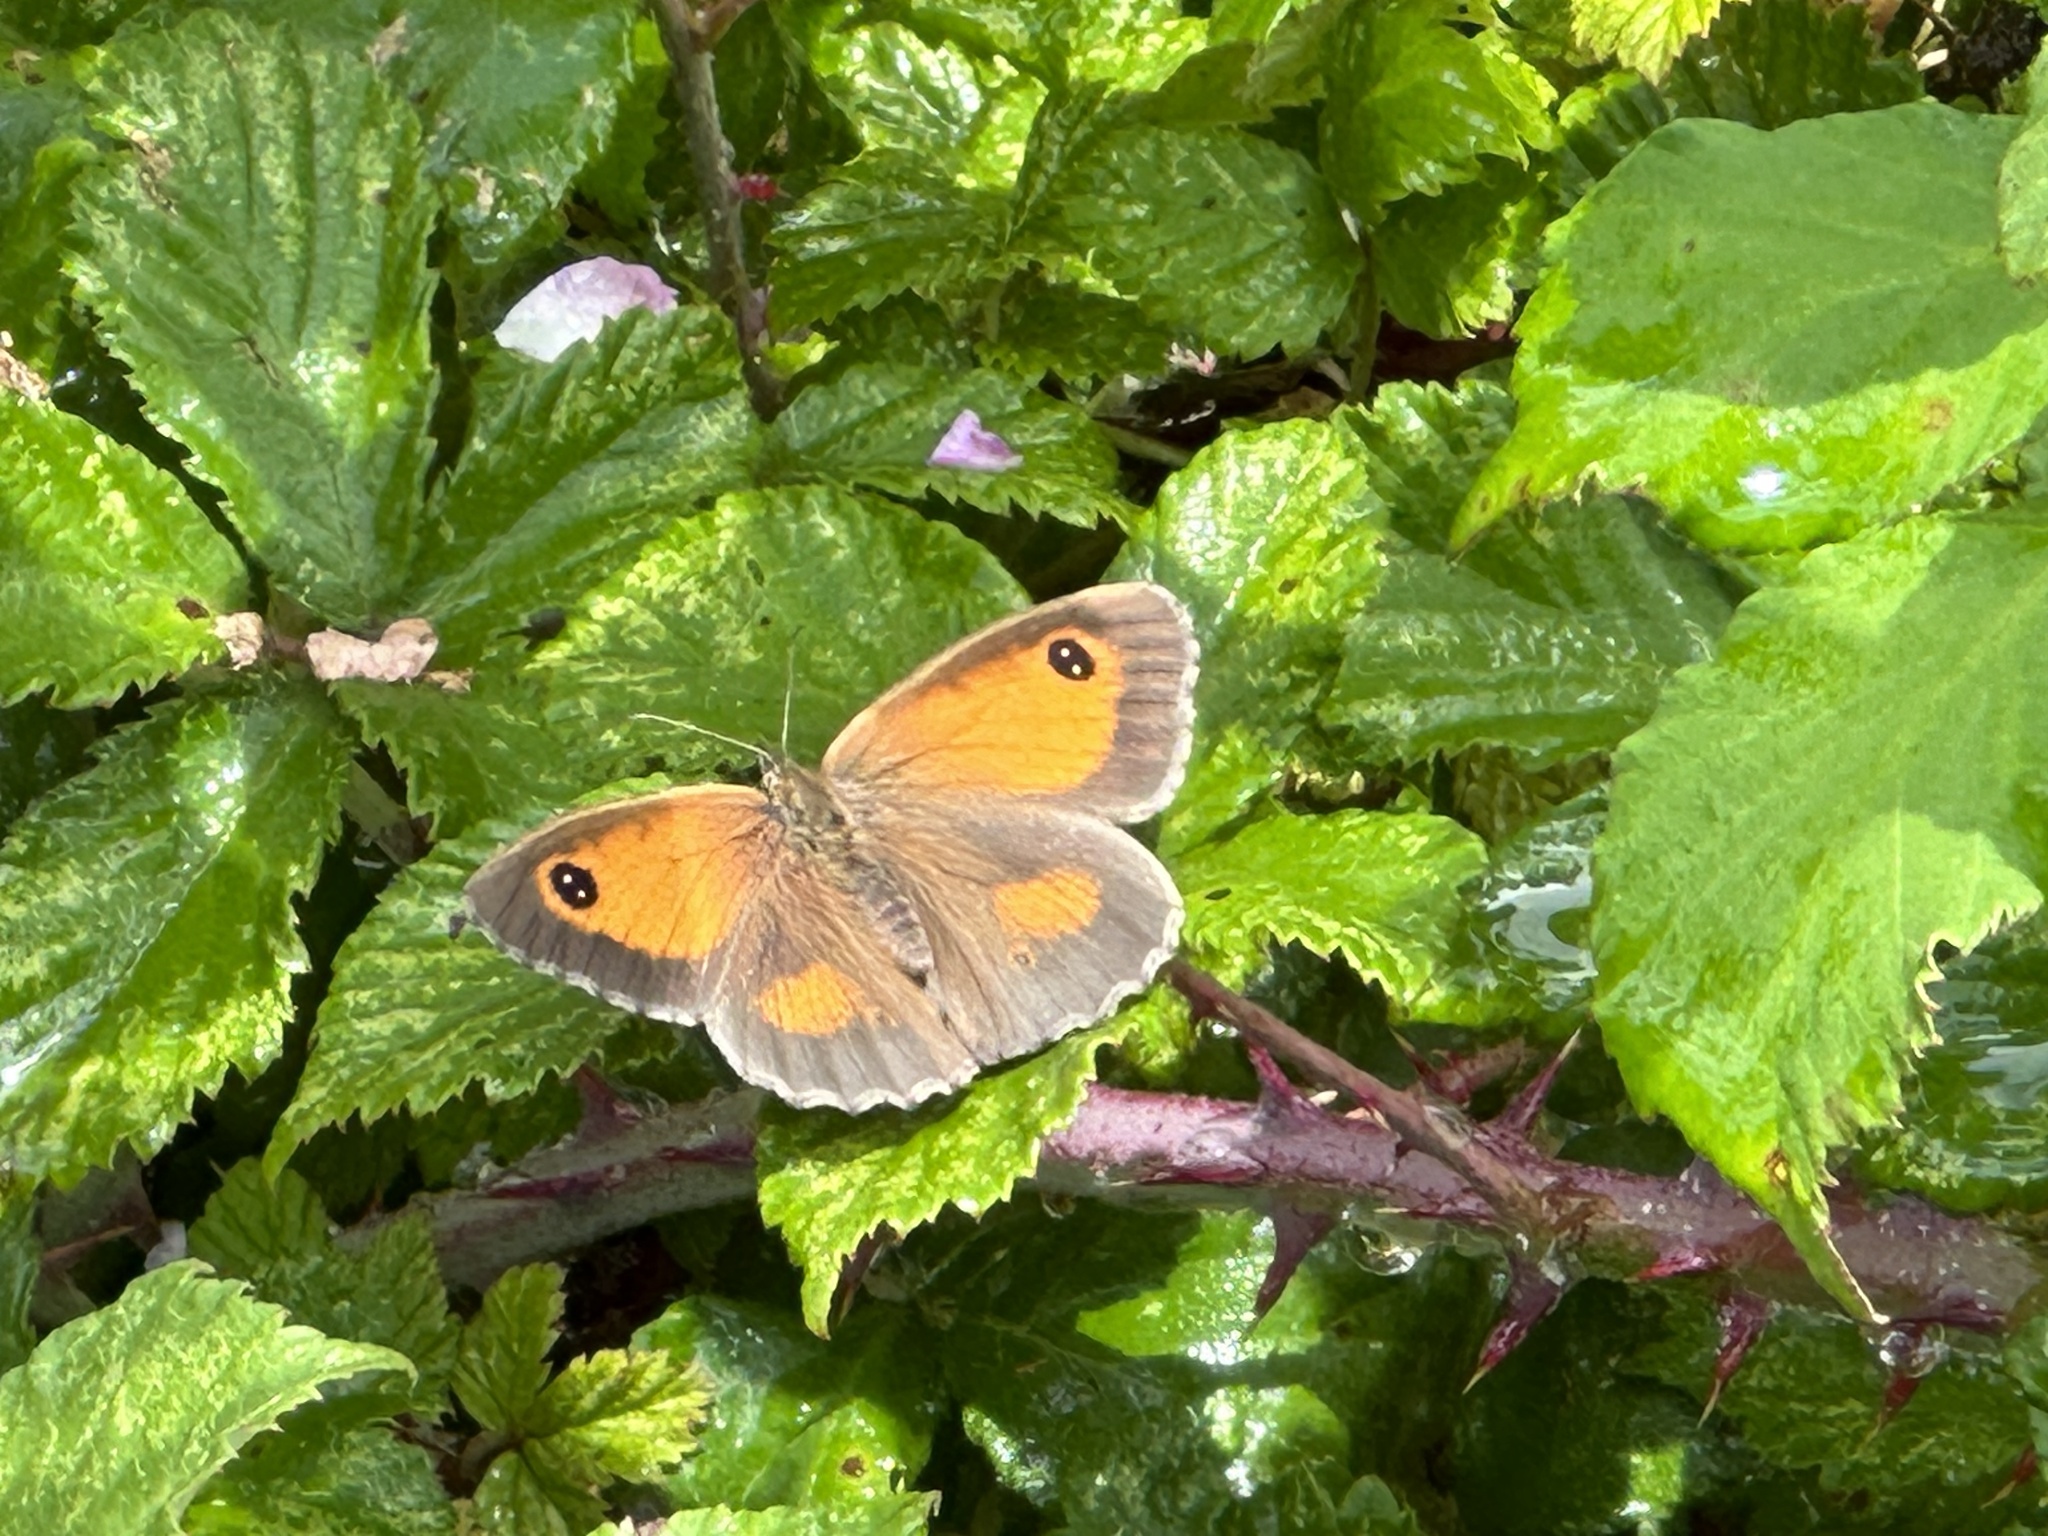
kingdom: Animalia
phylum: Arthropoda
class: Insecta
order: Lepidoptera
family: Nymphalidae
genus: Pyronia
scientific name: Pyronia tithonus
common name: Gatekeeper
